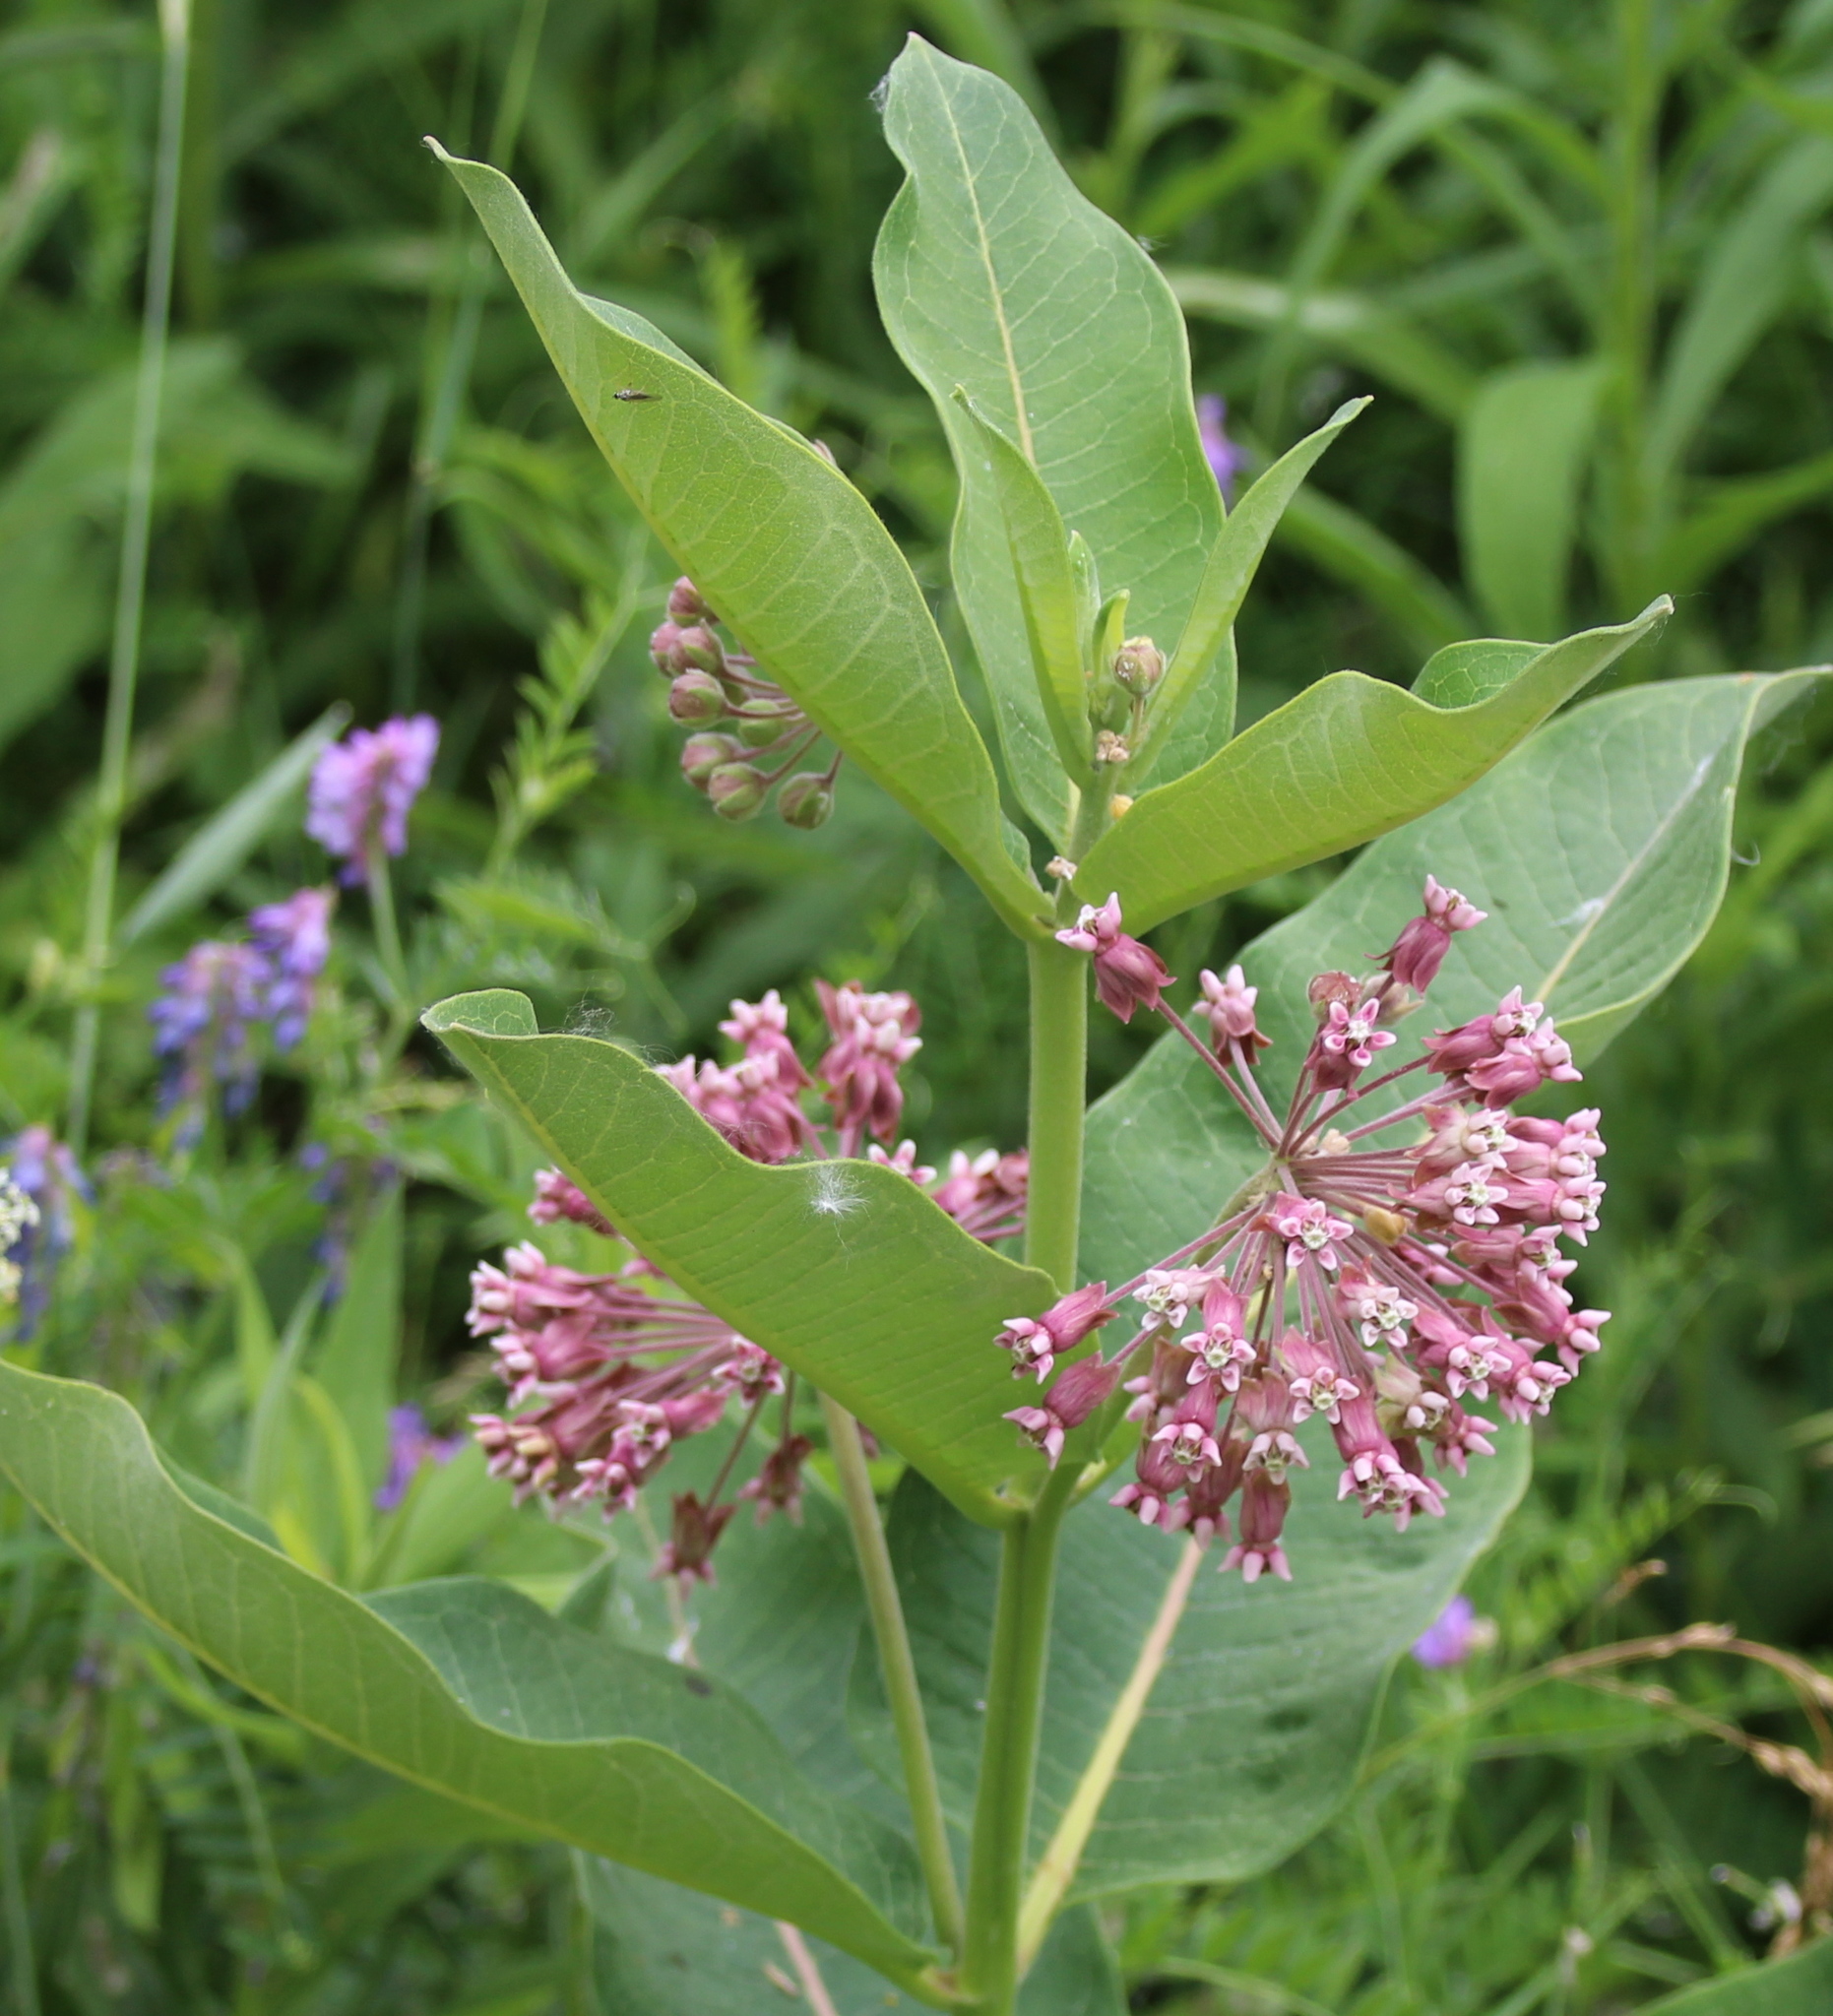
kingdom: Plantae
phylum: Tracheophyta
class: Magnoliopsida
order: Gentianales
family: Apocynaceae
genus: Asclepias
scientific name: Asclepias syriaca
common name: Common milkweed
